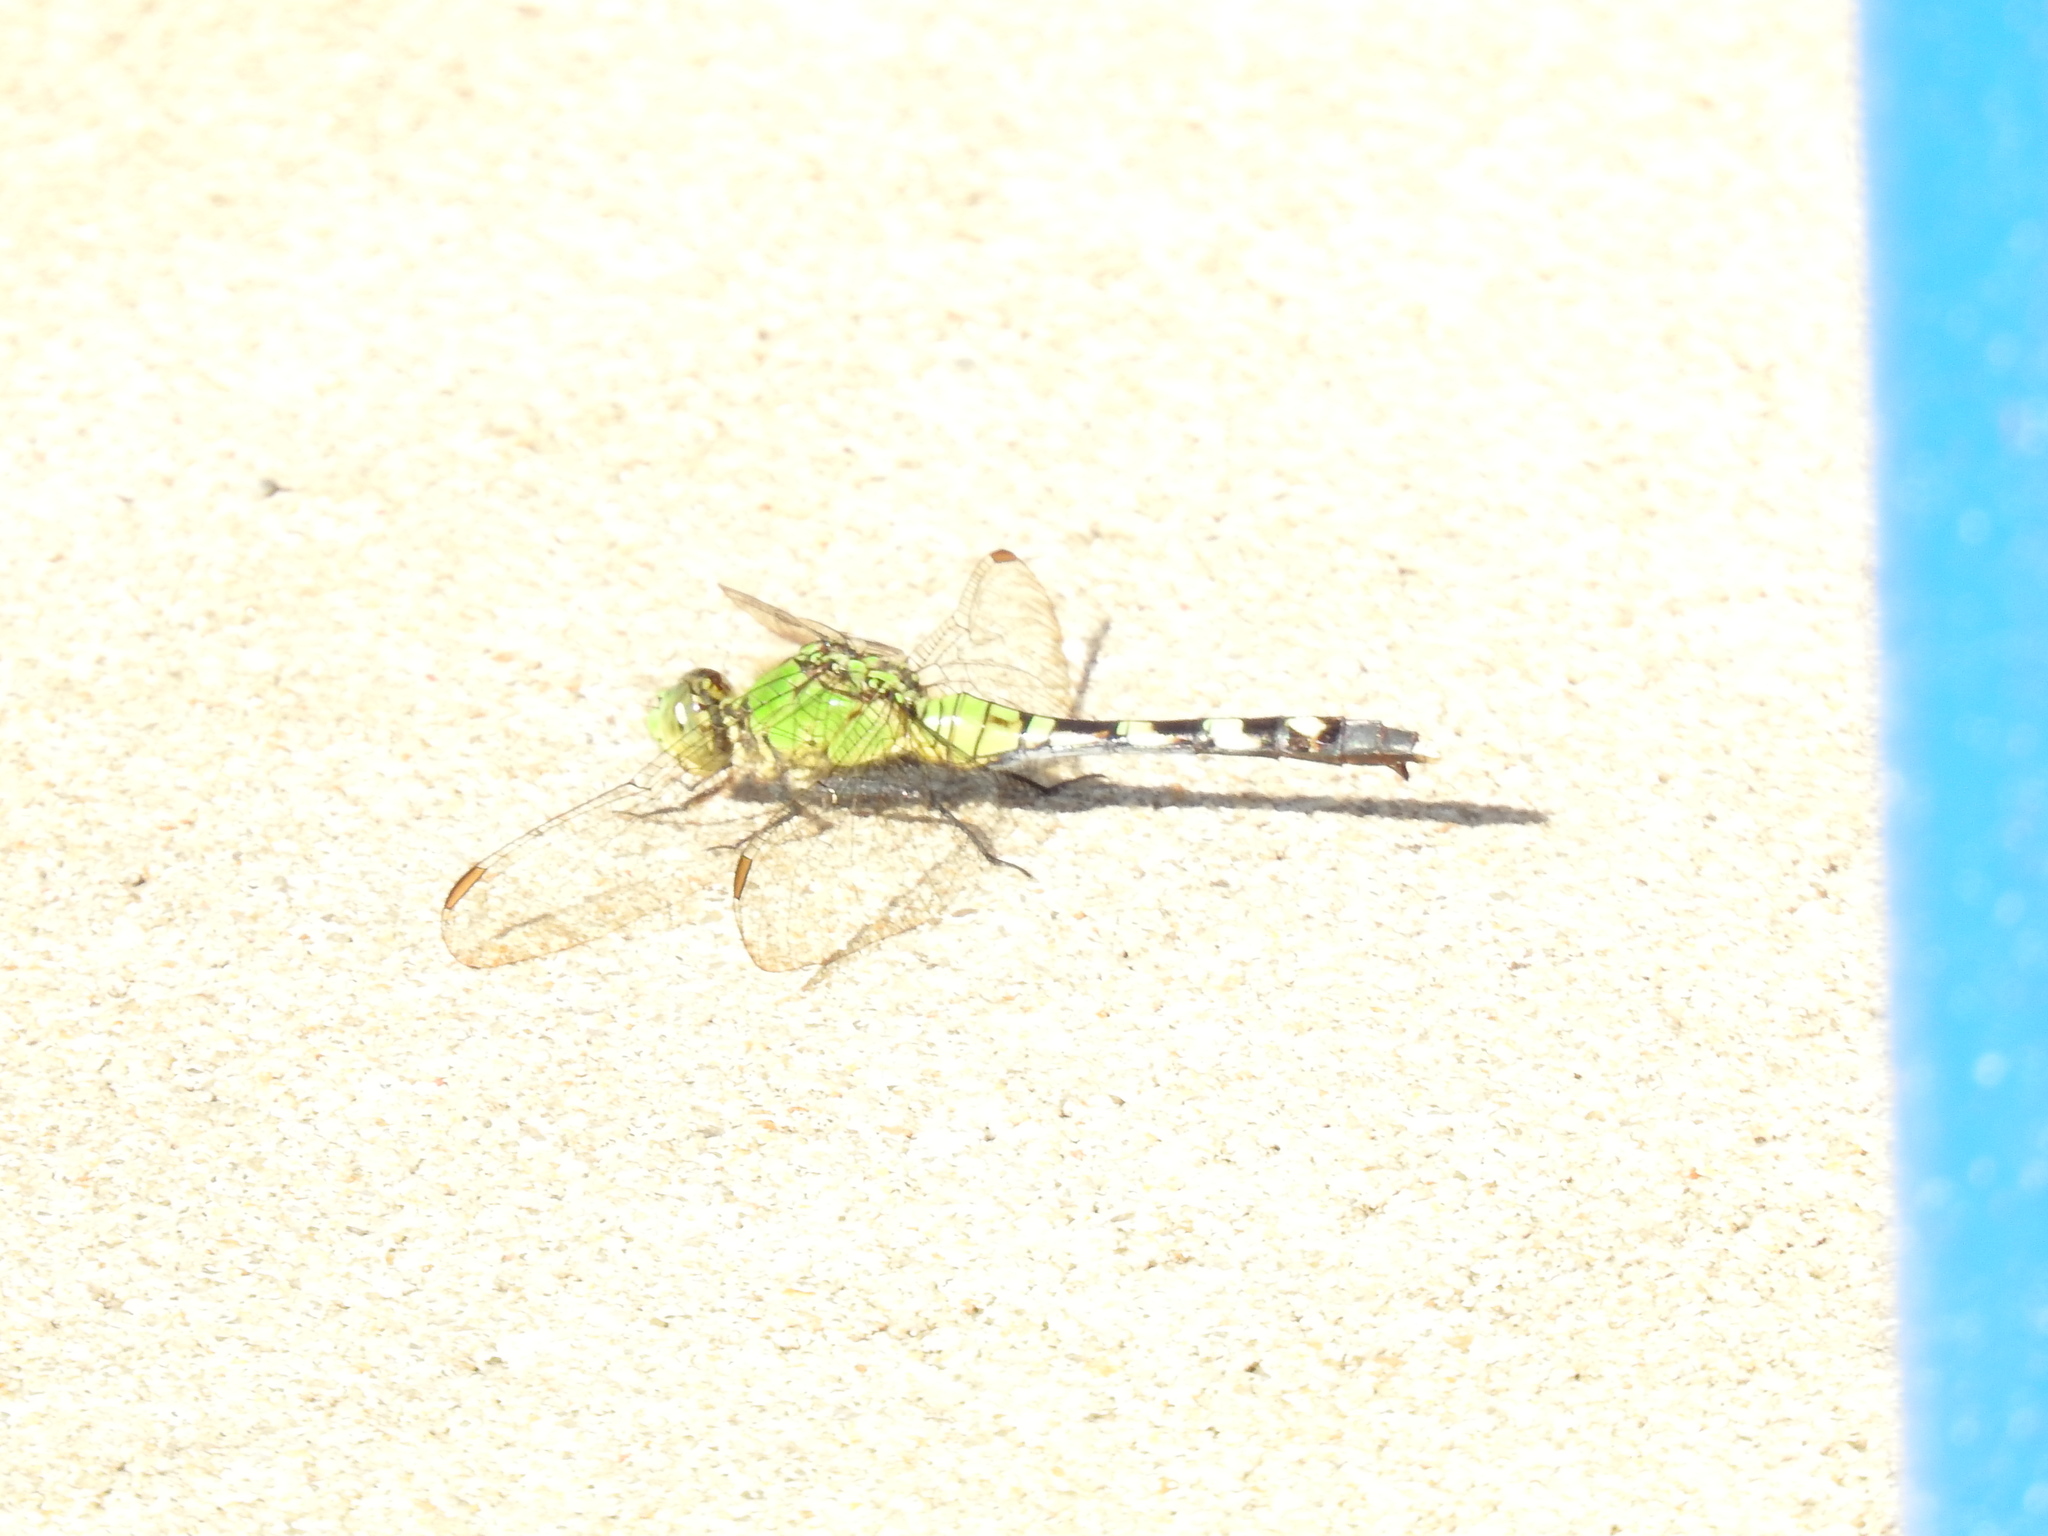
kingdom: Animalia
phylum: Arthropoda
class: Insecta
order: Odonata
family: Libellulidae
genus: Erythemis
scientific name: Erythemis simplicicollis
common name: Eastern pondhawk
